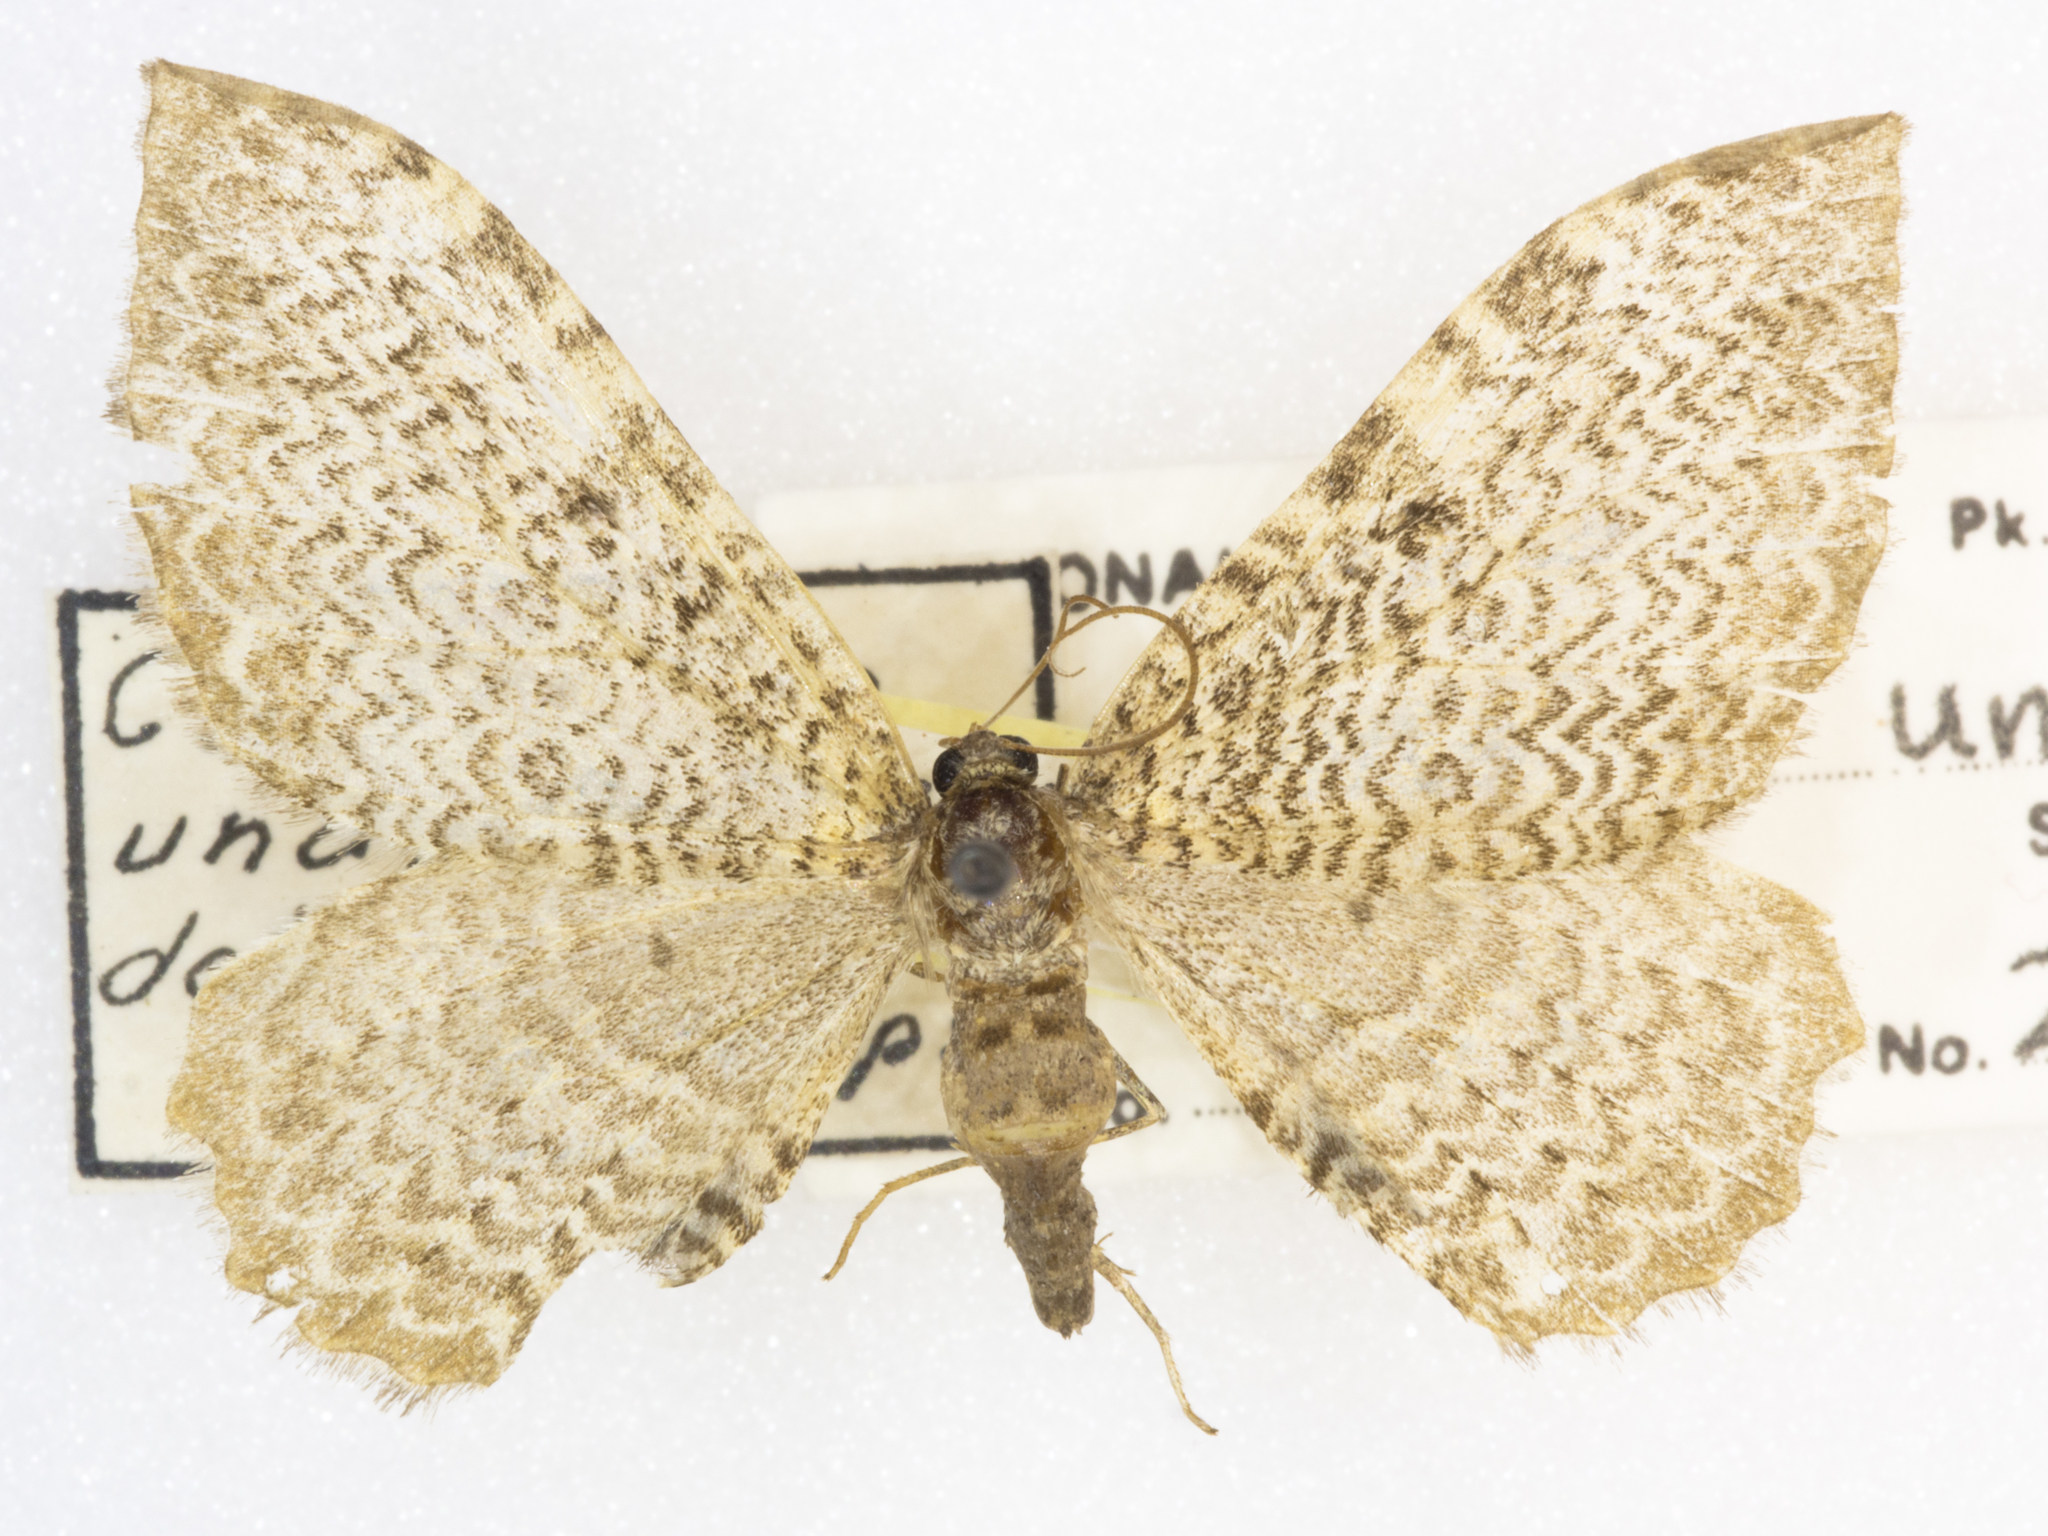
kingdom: Animalia
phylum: Arthropoda
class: Insecta
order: Lepidoptera
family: Geometridae
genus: Rheumaptera
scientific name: Rheumaptera undulata
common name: Scallop shell
